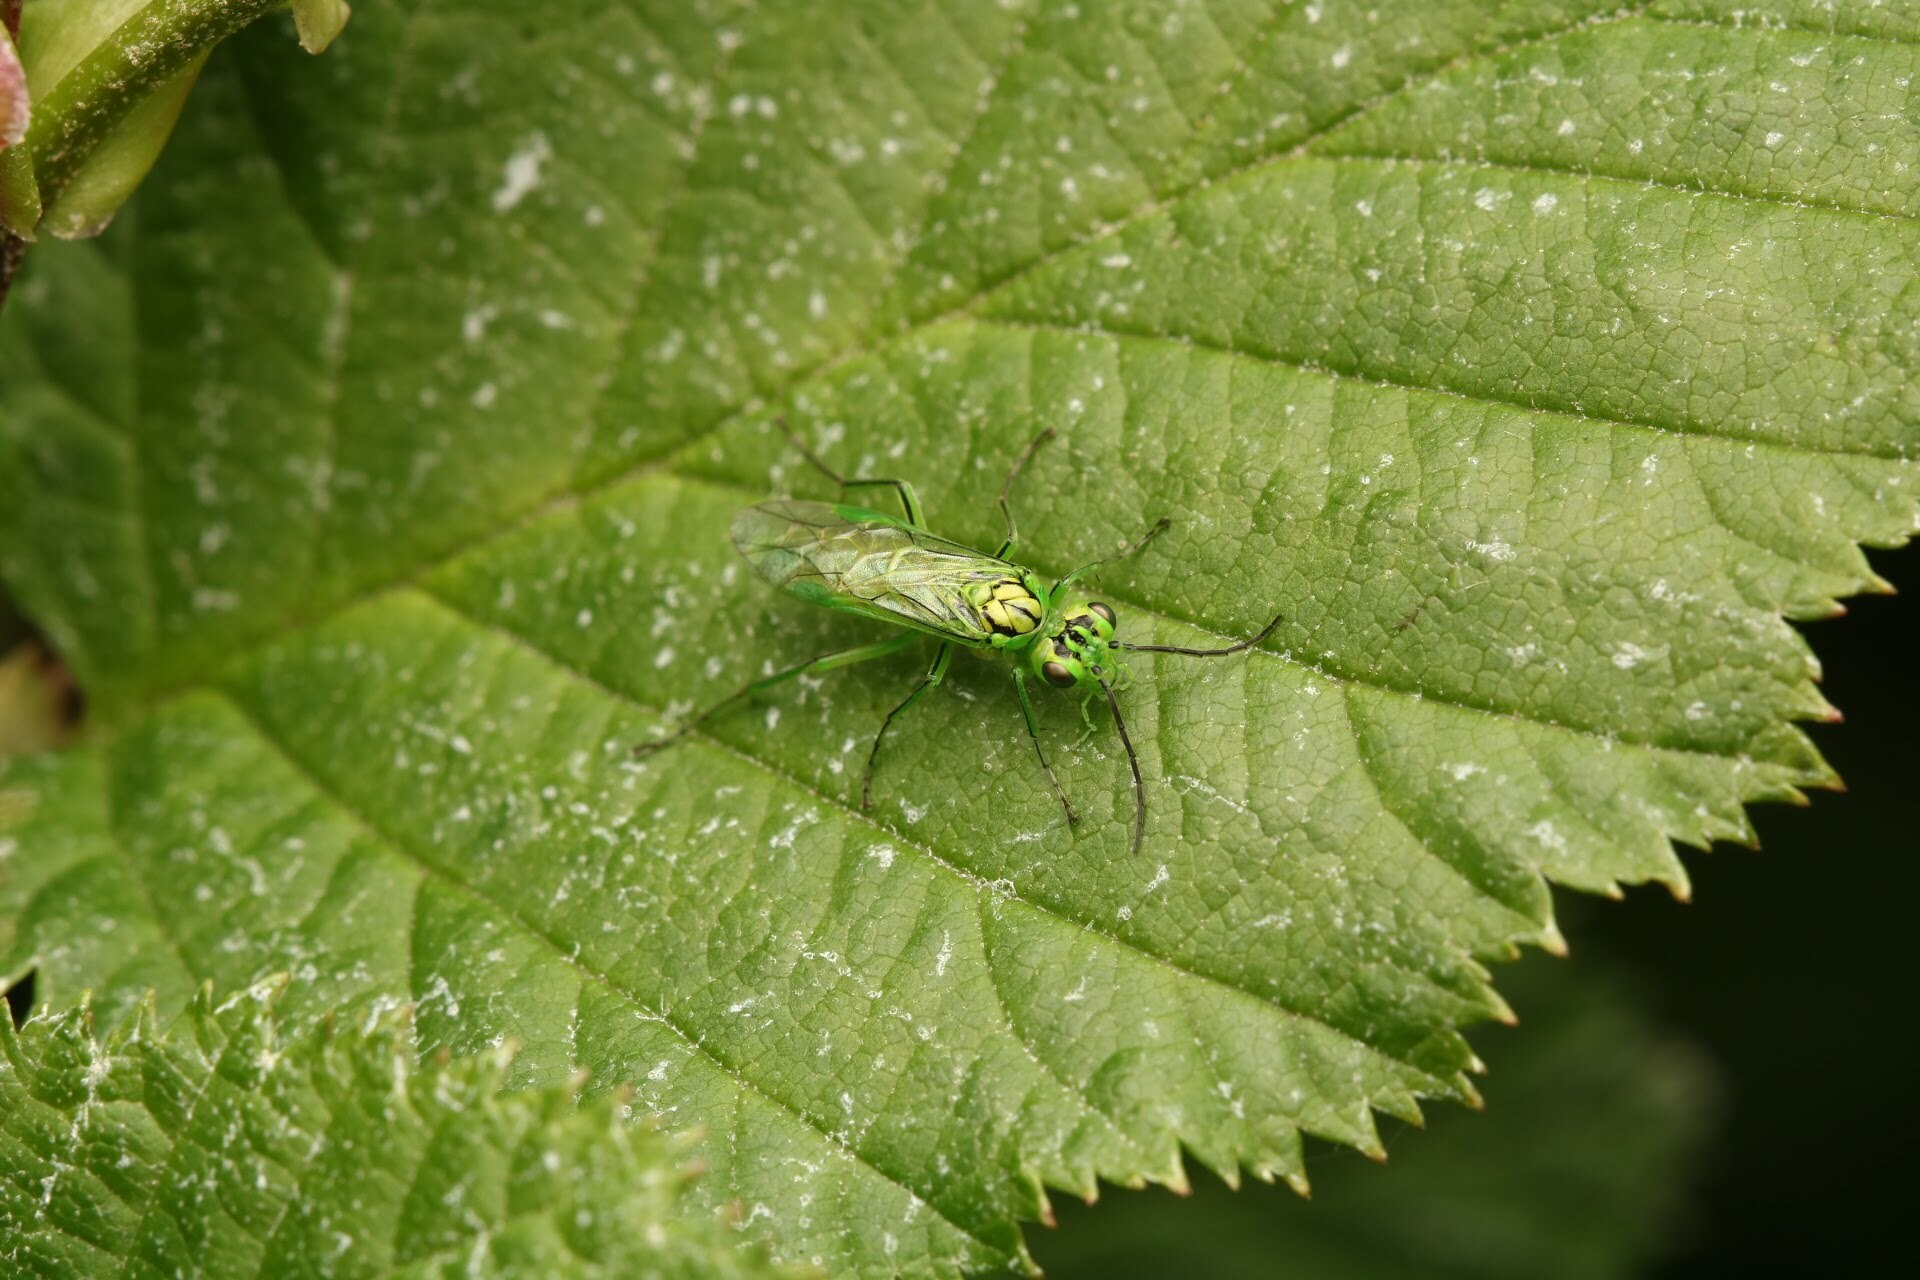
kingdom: Animalia
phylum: Arthropoda
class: Insecta
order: Hymenoptera
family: Tenthredinidae
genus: Rhogogaster
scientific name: Rhogogaster punctulata
